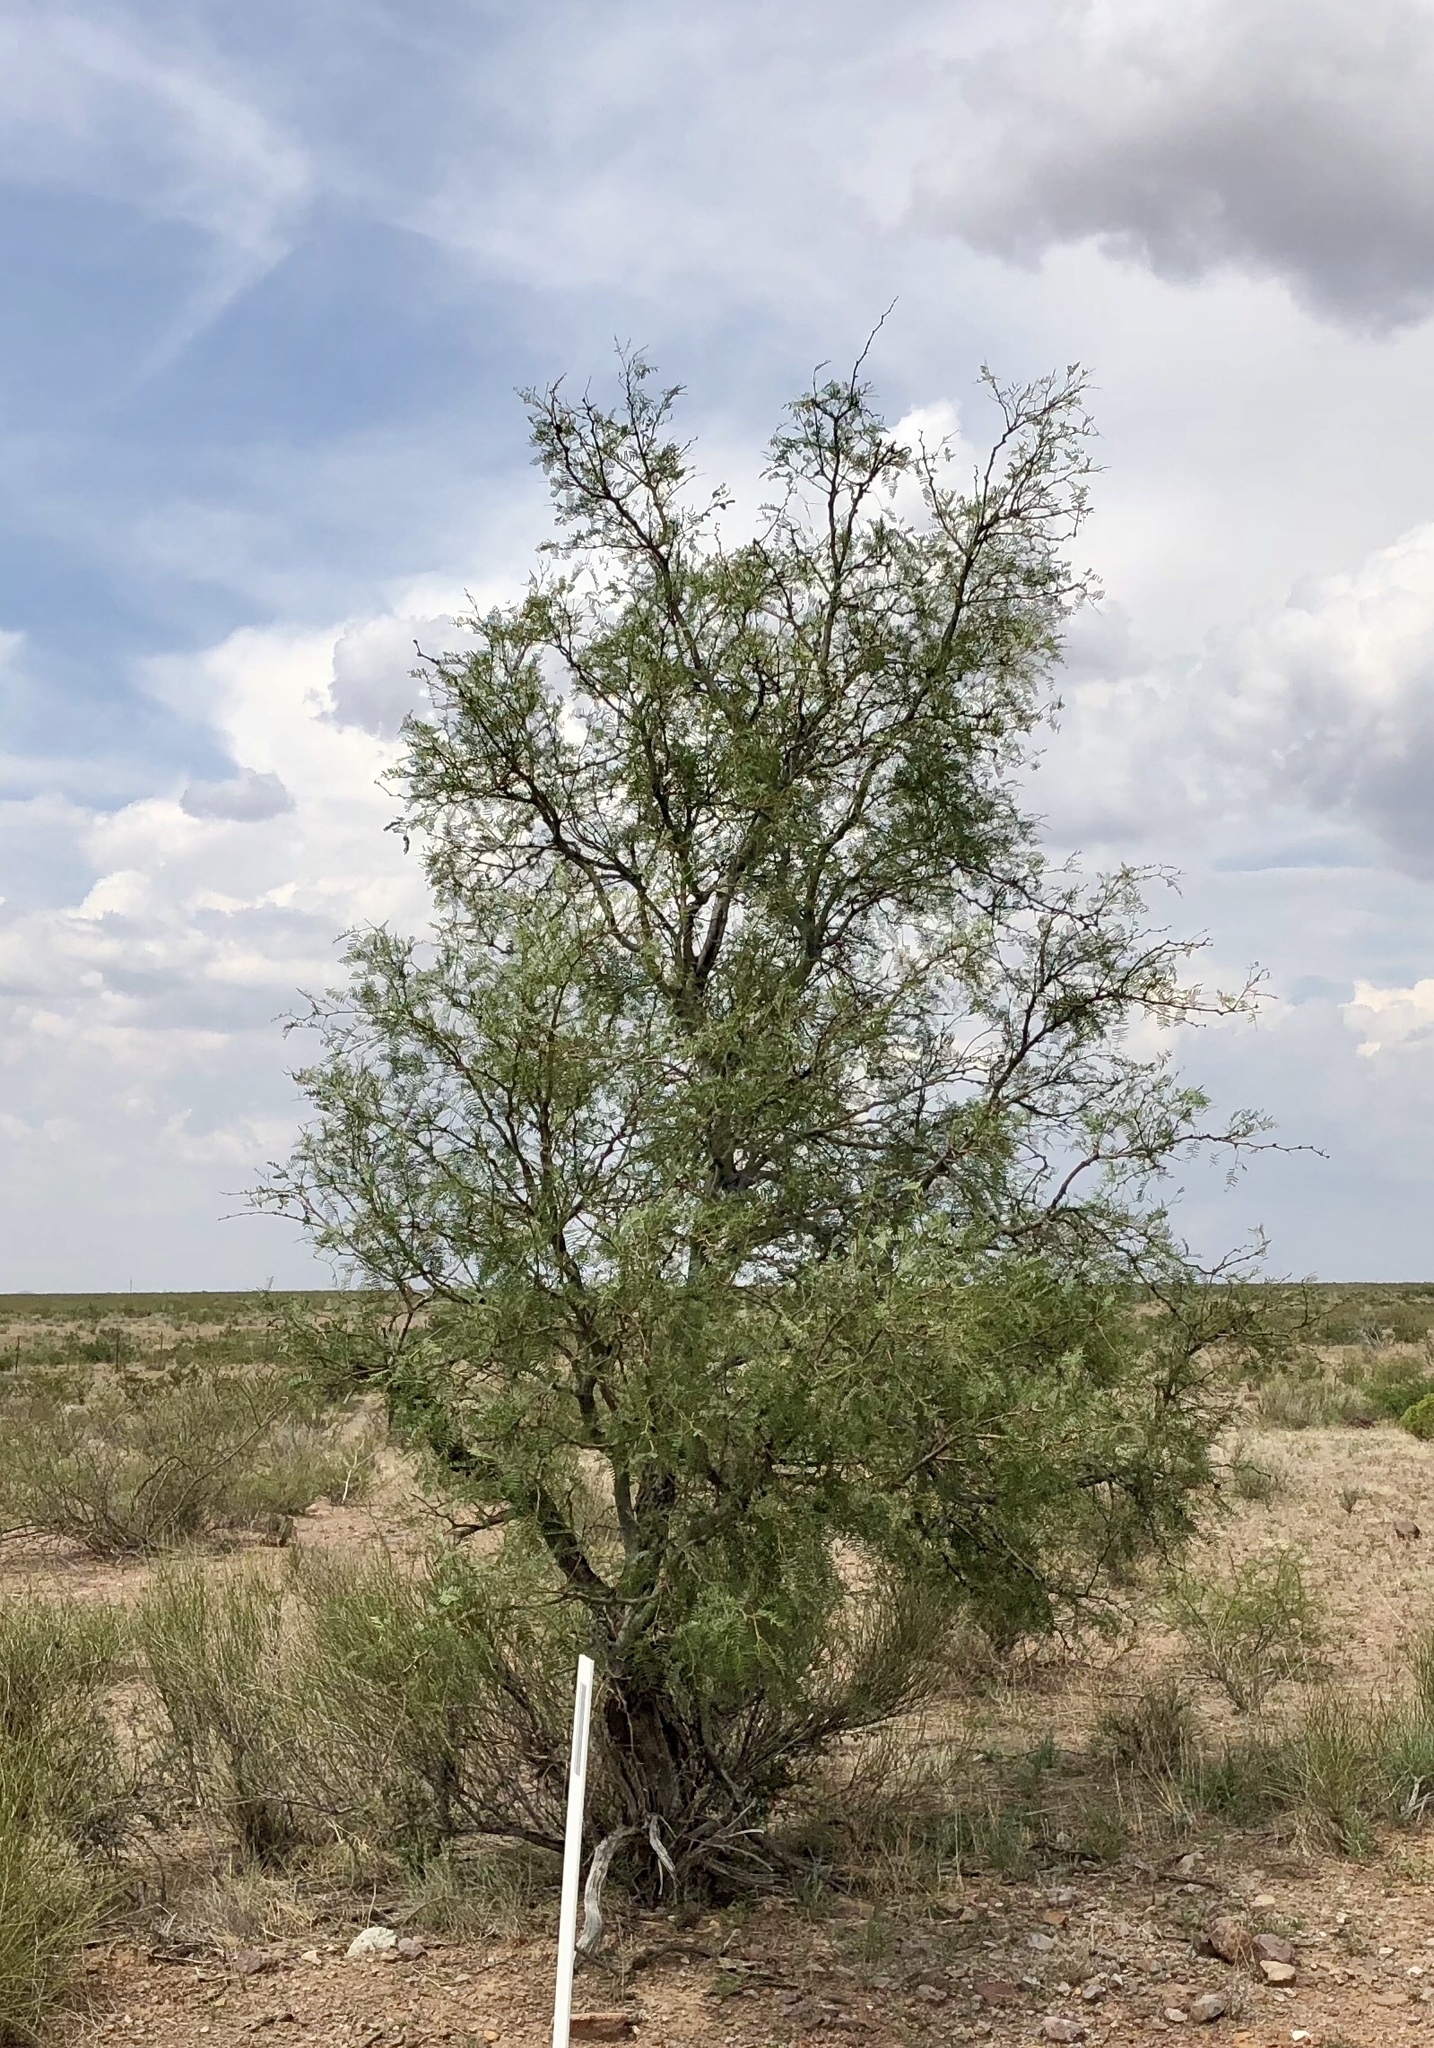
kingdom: Plantae
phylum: Tracheophyta
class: Magnoliopsida
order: Fabales
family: Fabaceae
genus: Prosopis
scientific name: Prosopis glandulosa
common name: Honey mesquite
